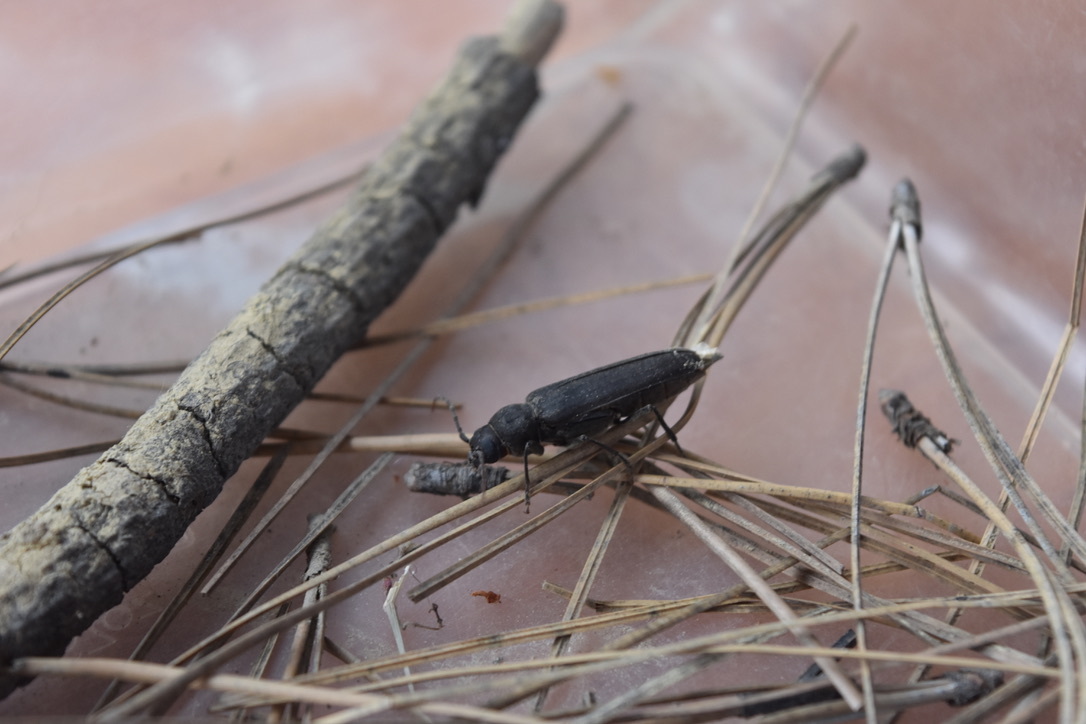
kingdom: Animalia
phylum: Arthropoda
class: Insecta
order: Coleoptera
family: Cerambycidae
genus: Arhopalus
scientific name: Arhopalus ferus
